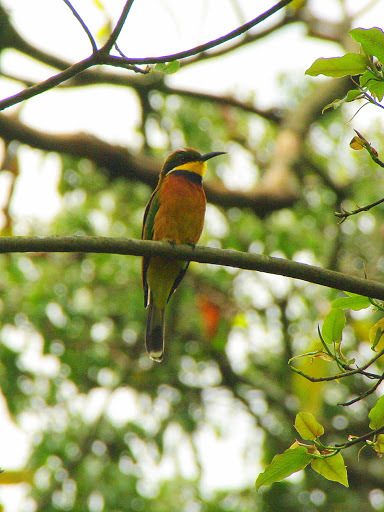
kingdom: Animalia
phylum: Chordata
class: Aves
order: Coraciiformes
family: Meropidae
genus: Merops
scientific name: Merops oreobates
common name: Cinnamon-chested bee-eater
